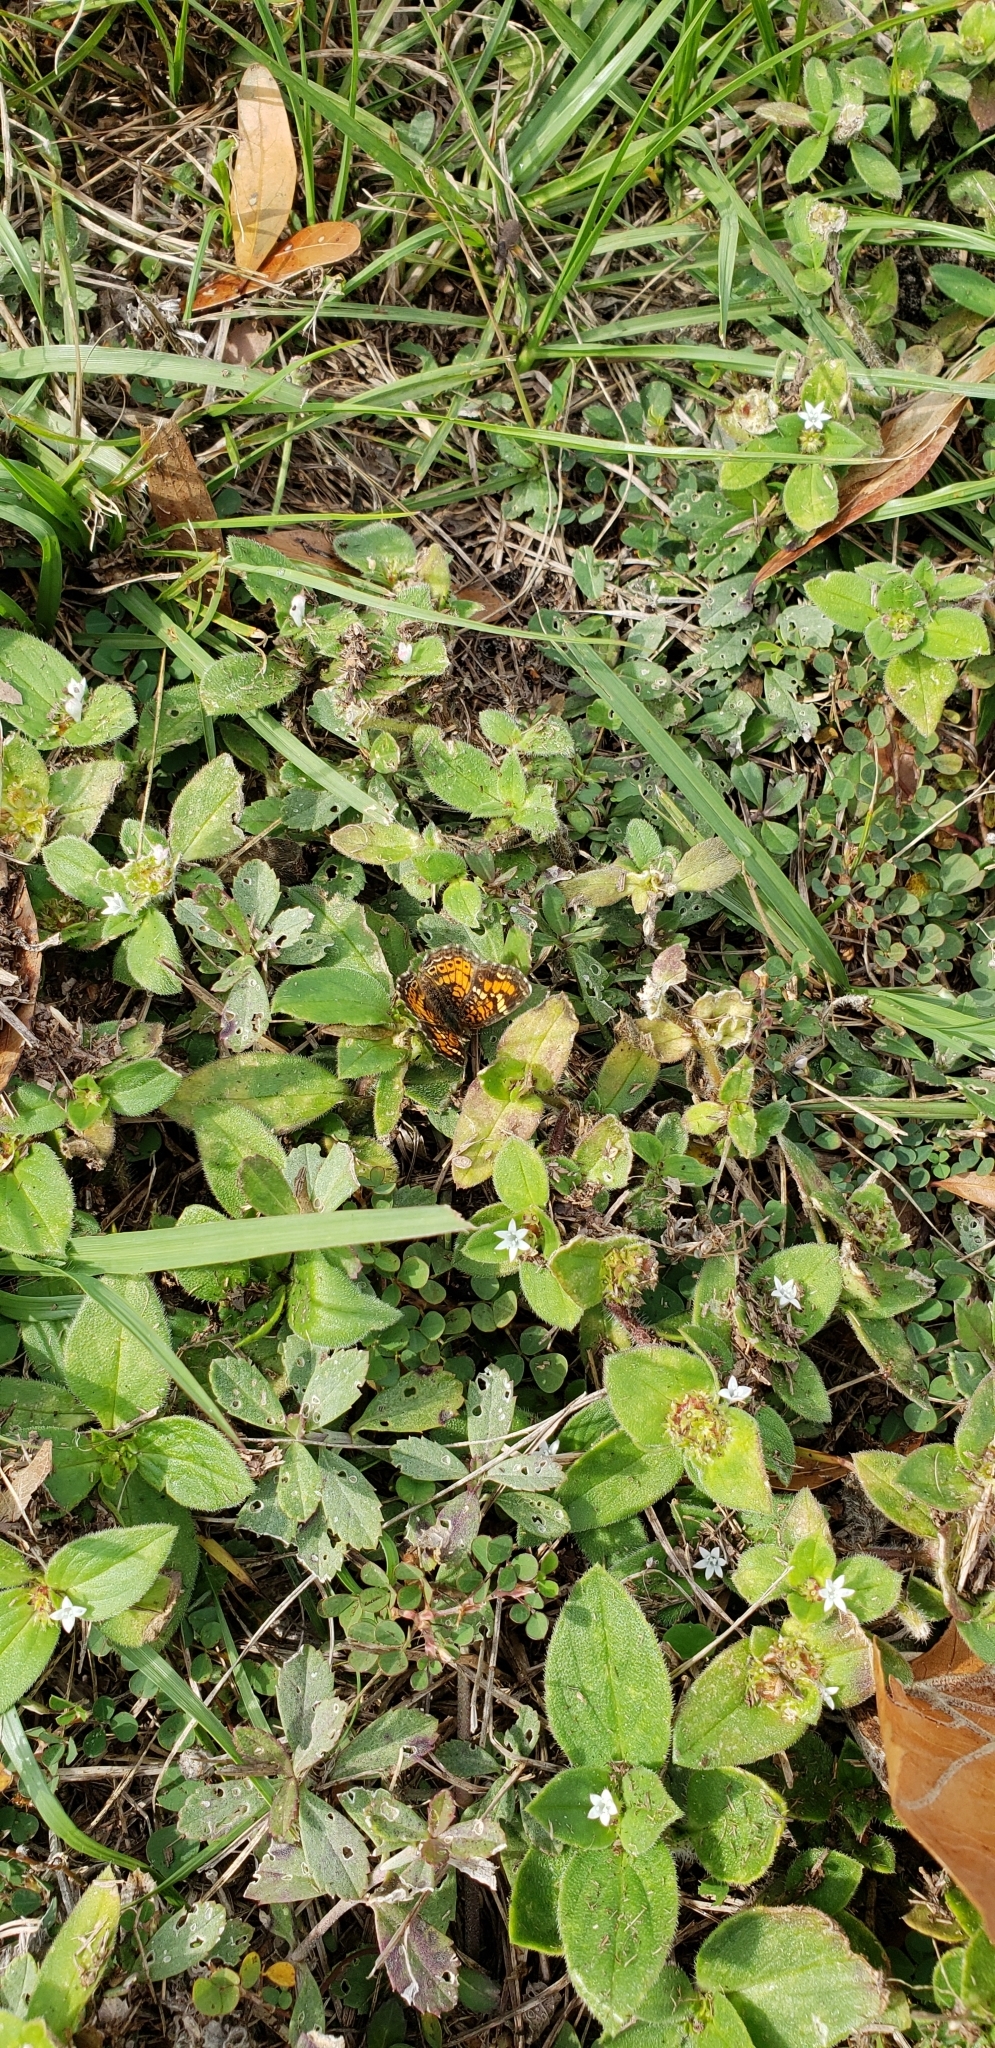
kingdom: Animalia
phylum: Arthropoda
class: Insecta
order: Lepidoptera
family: Nymphalidae
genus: Phyciodes
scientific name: Phyciodes phaon
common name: Phaon crescent
